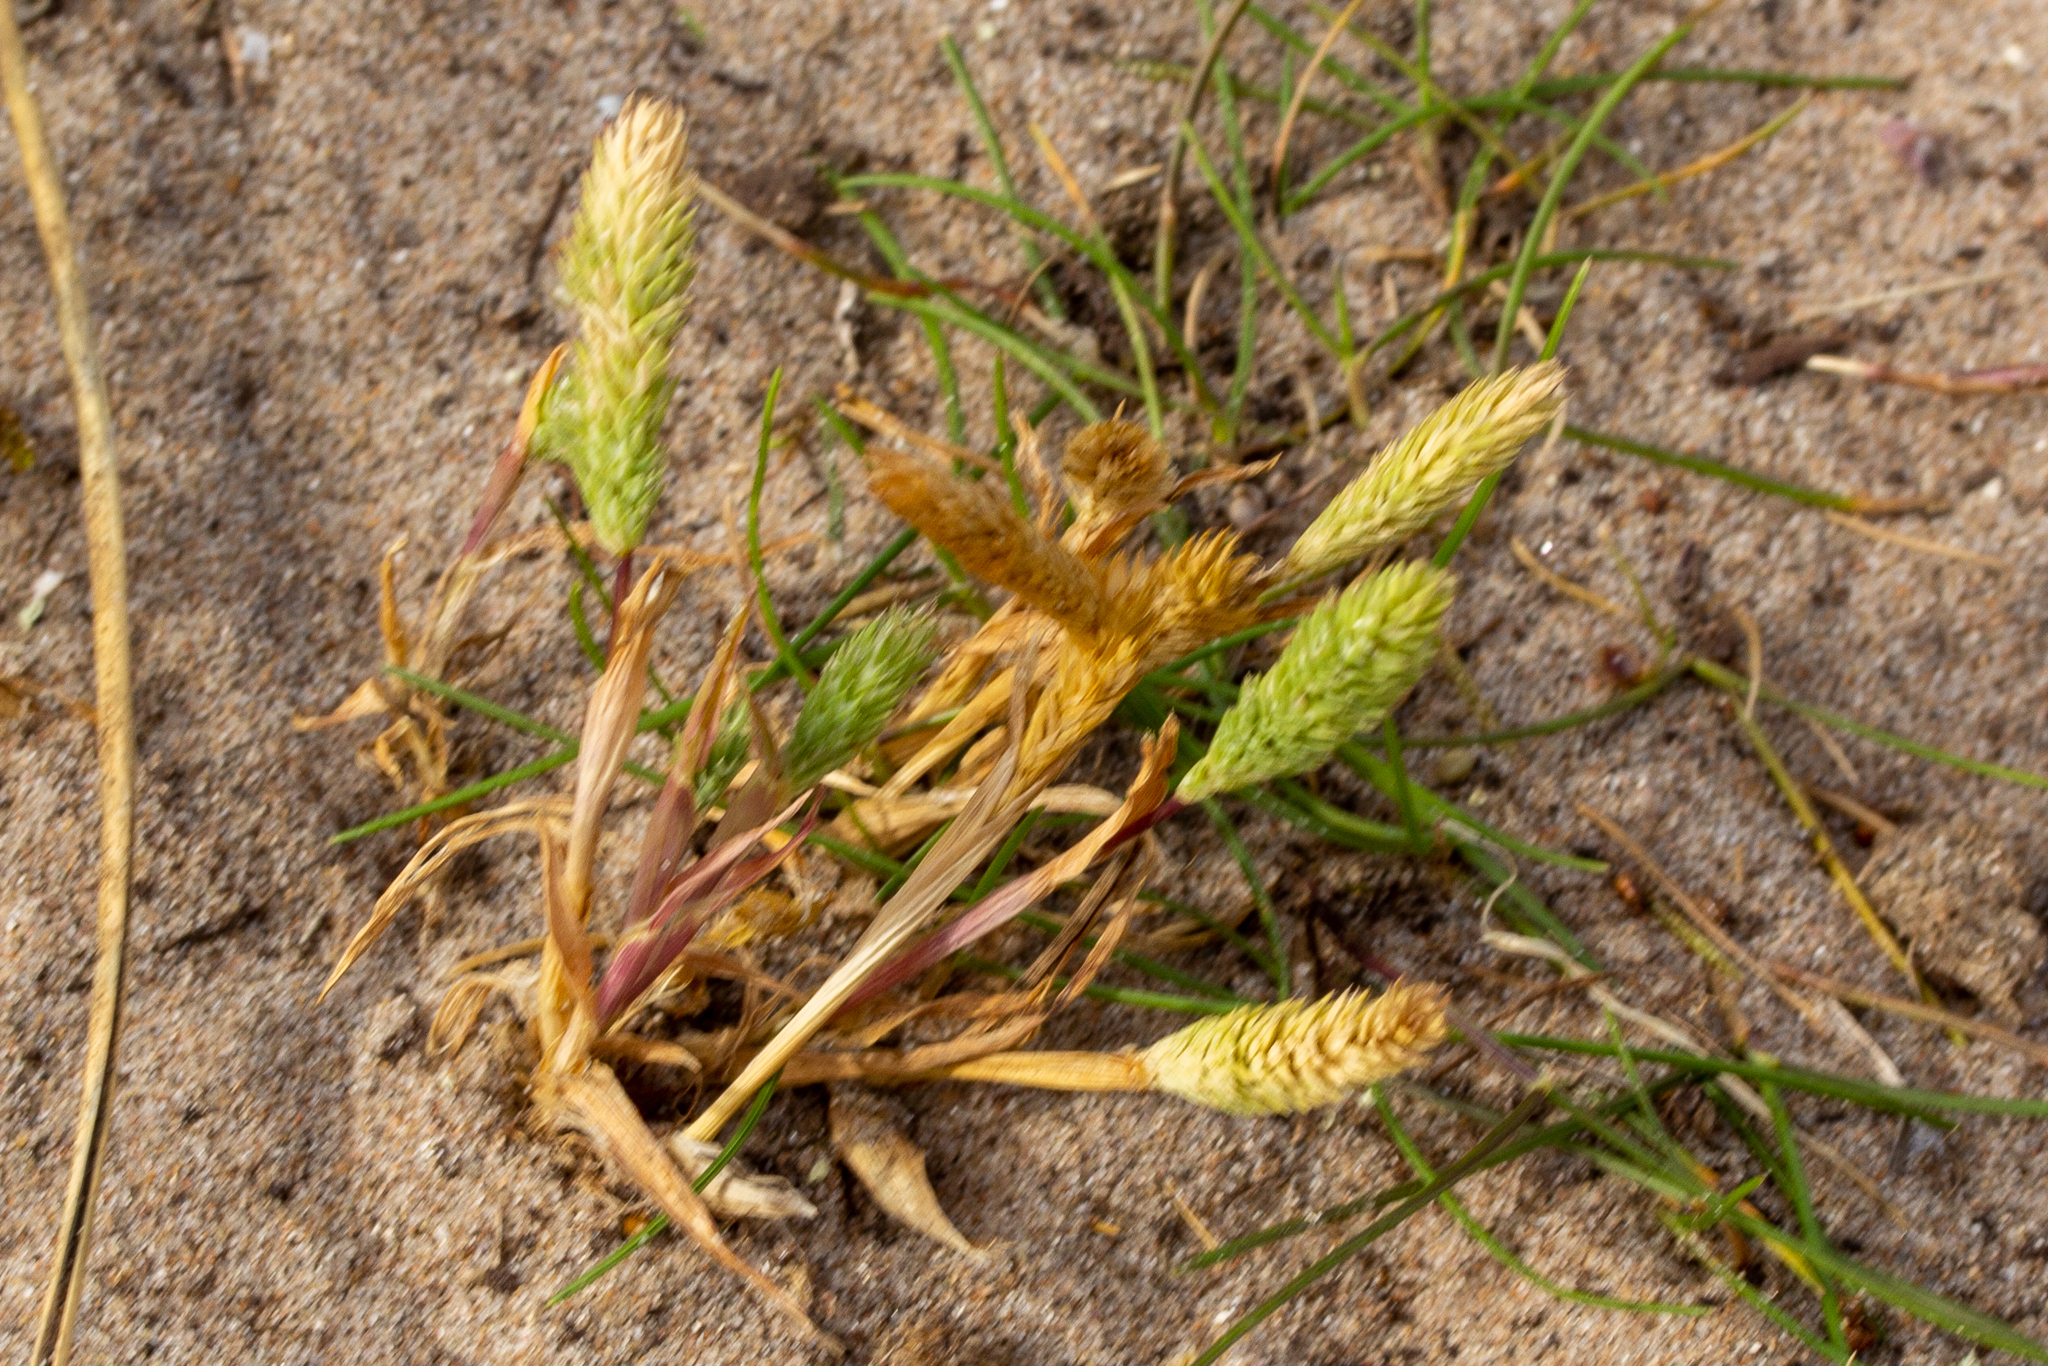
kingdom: Plantae
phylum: Tracheophyta
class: Liliopsida
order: Poales
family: Poaceae
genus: Phleum
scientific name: Phleum arenarium
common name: Sand cat's-tail
